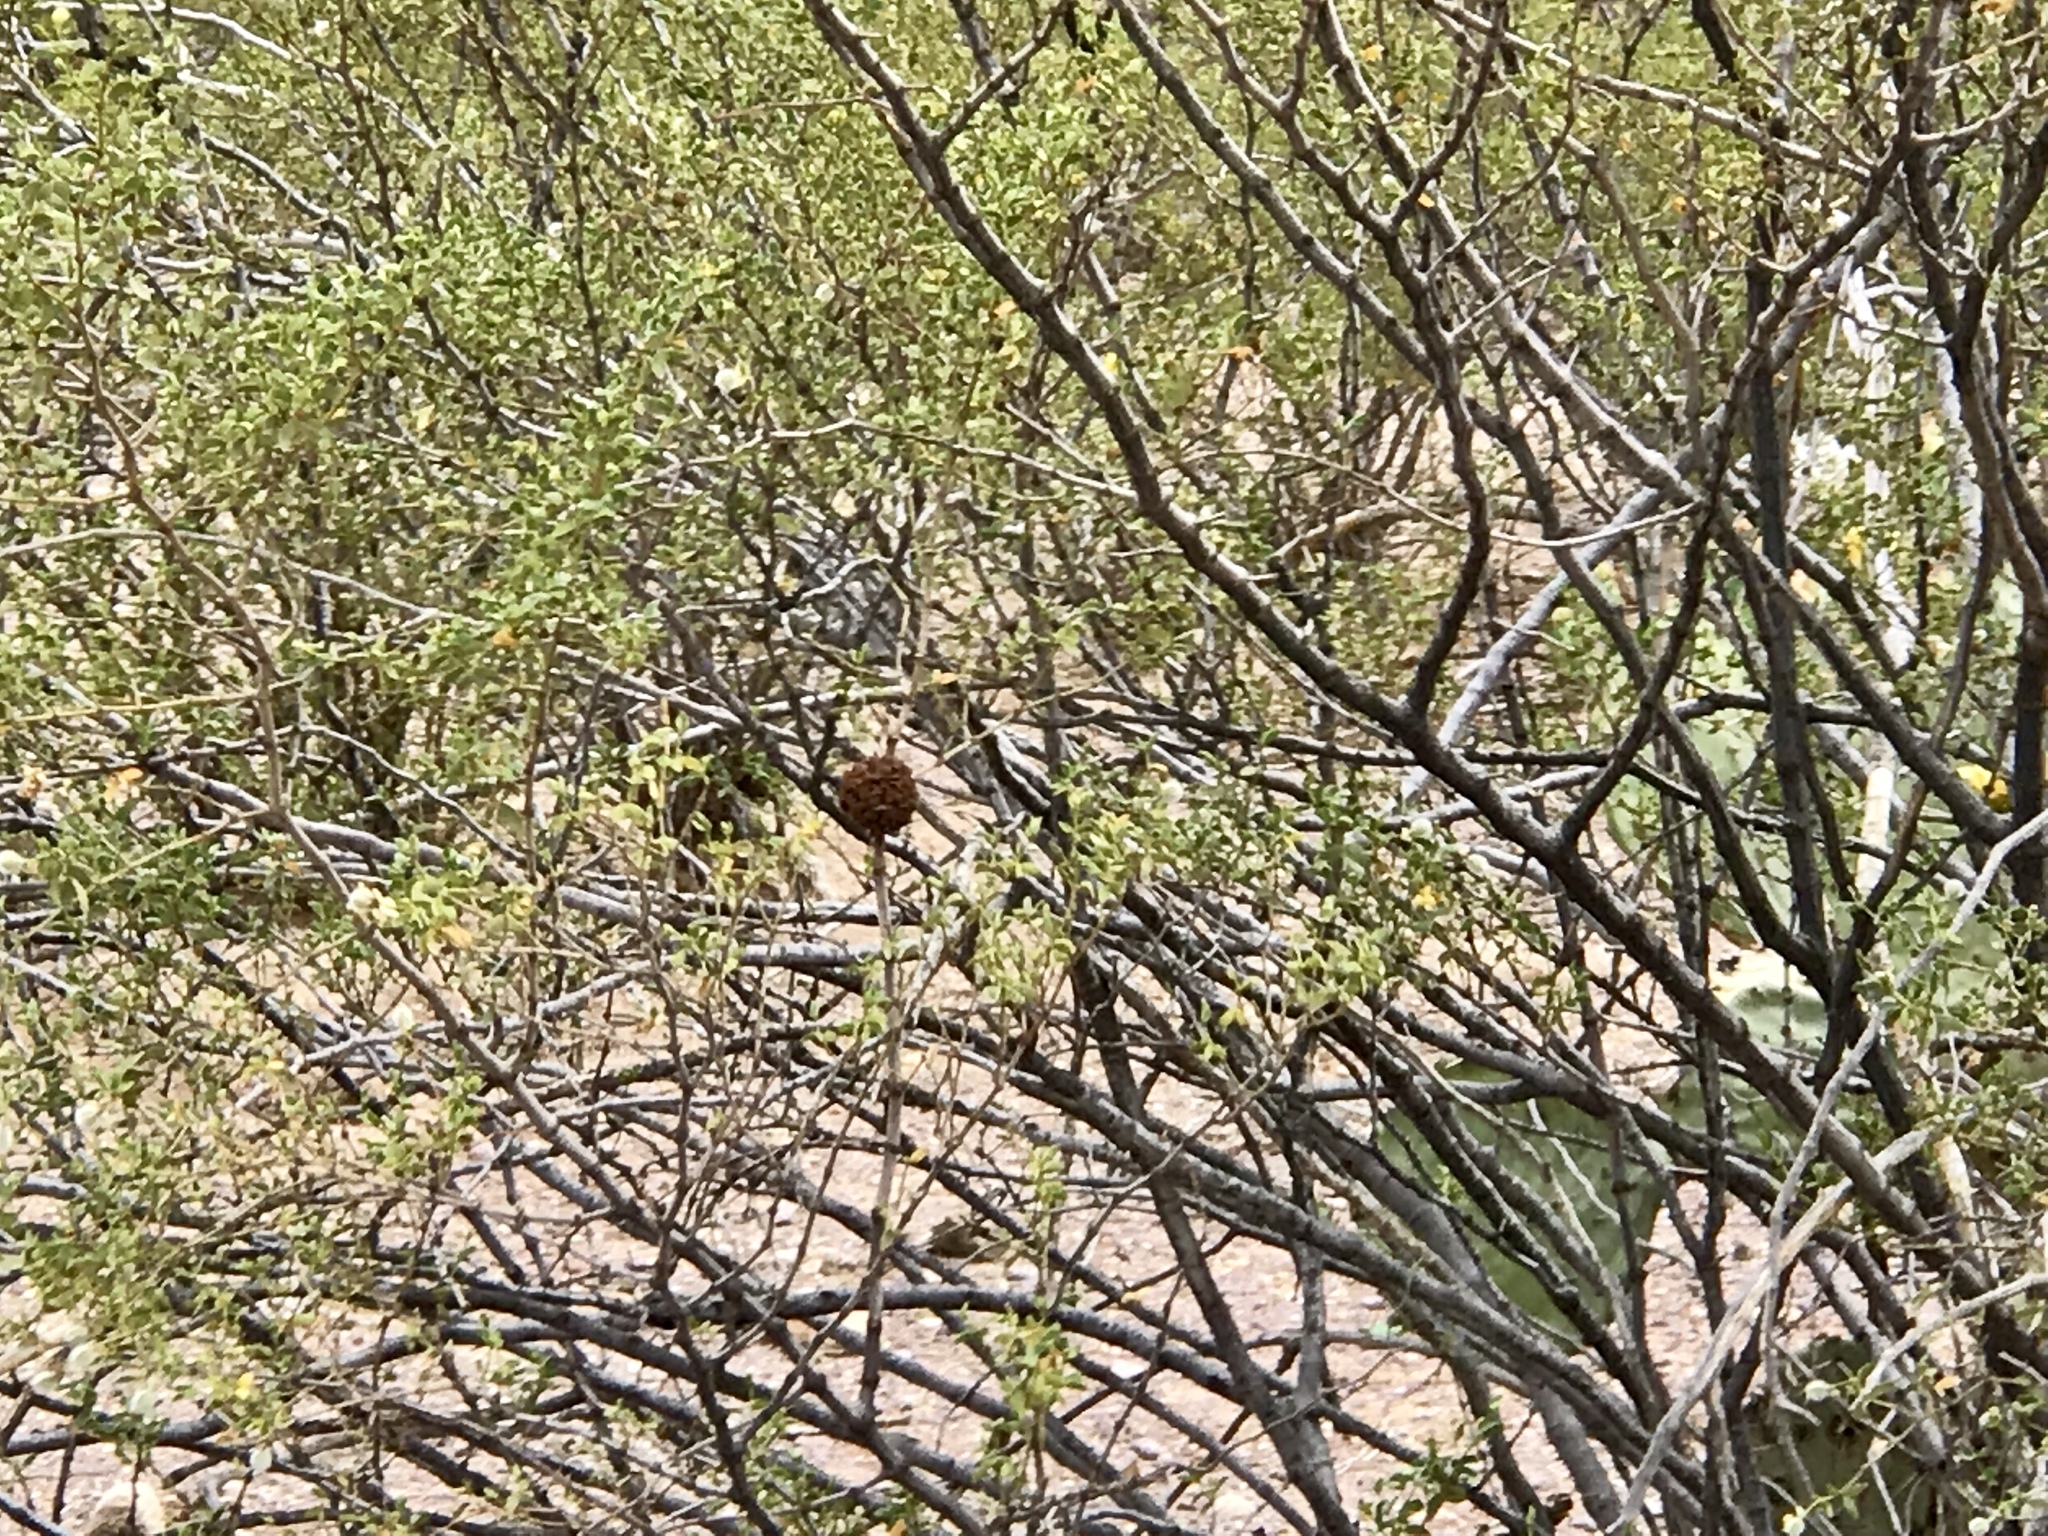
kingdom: Animalia
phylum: Arthropoda
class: Insecta
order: Diptera
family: Cecidomyiidae
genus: Asphondylia
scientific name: Asphondylia auripila
